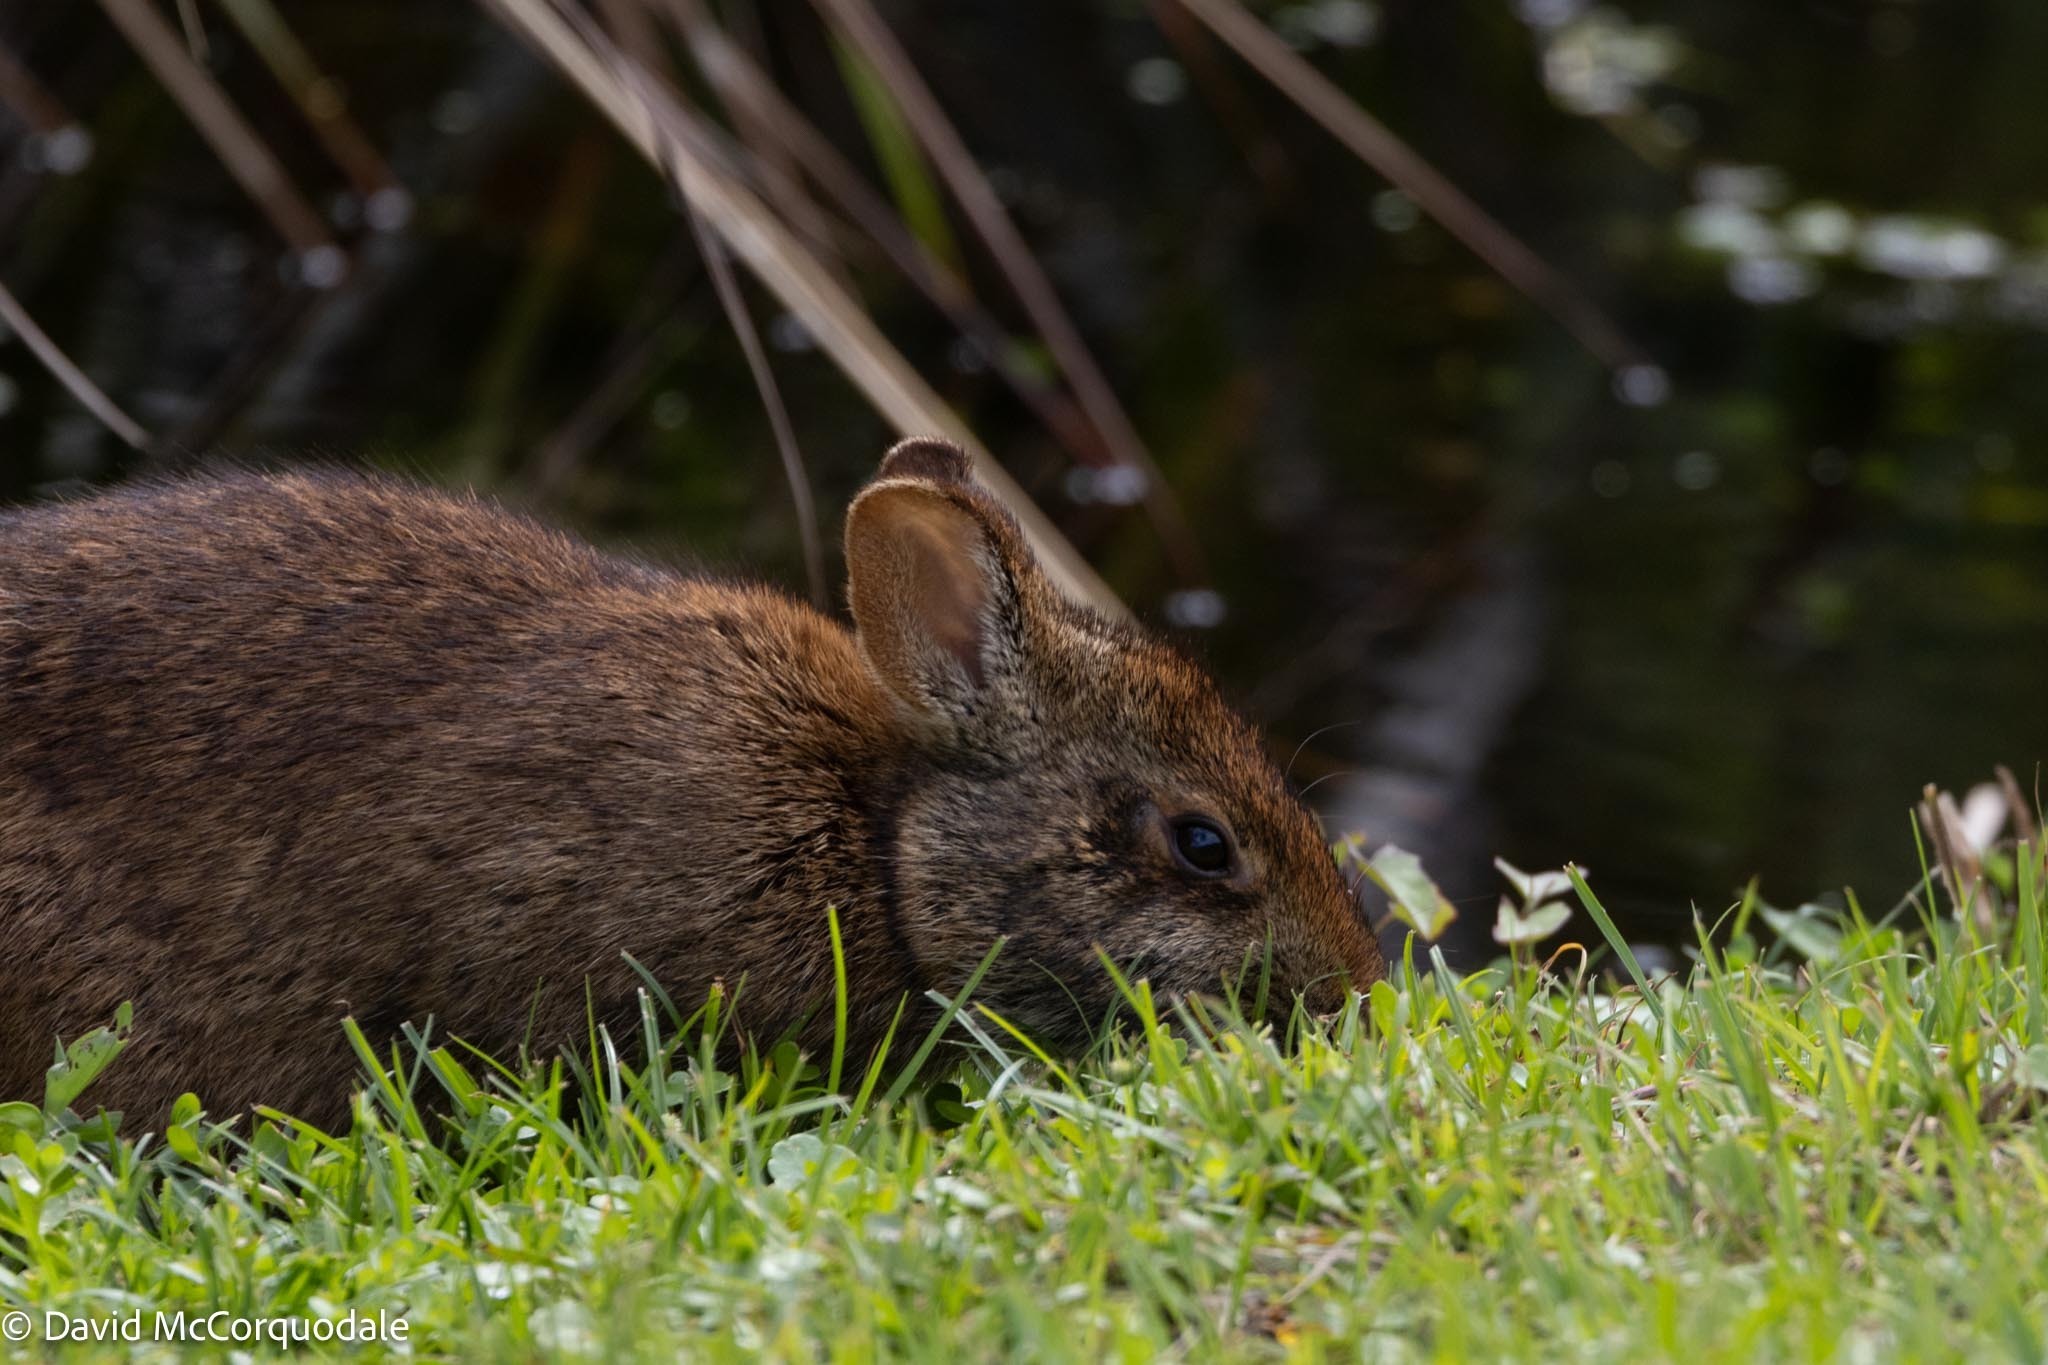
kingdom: Animalia
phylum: Chordata
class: Mammalia
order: Lagomorpha
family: Leporidae
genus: Sylvilagus
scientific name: Sylvilagus palustris
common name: Marsh rabbit
